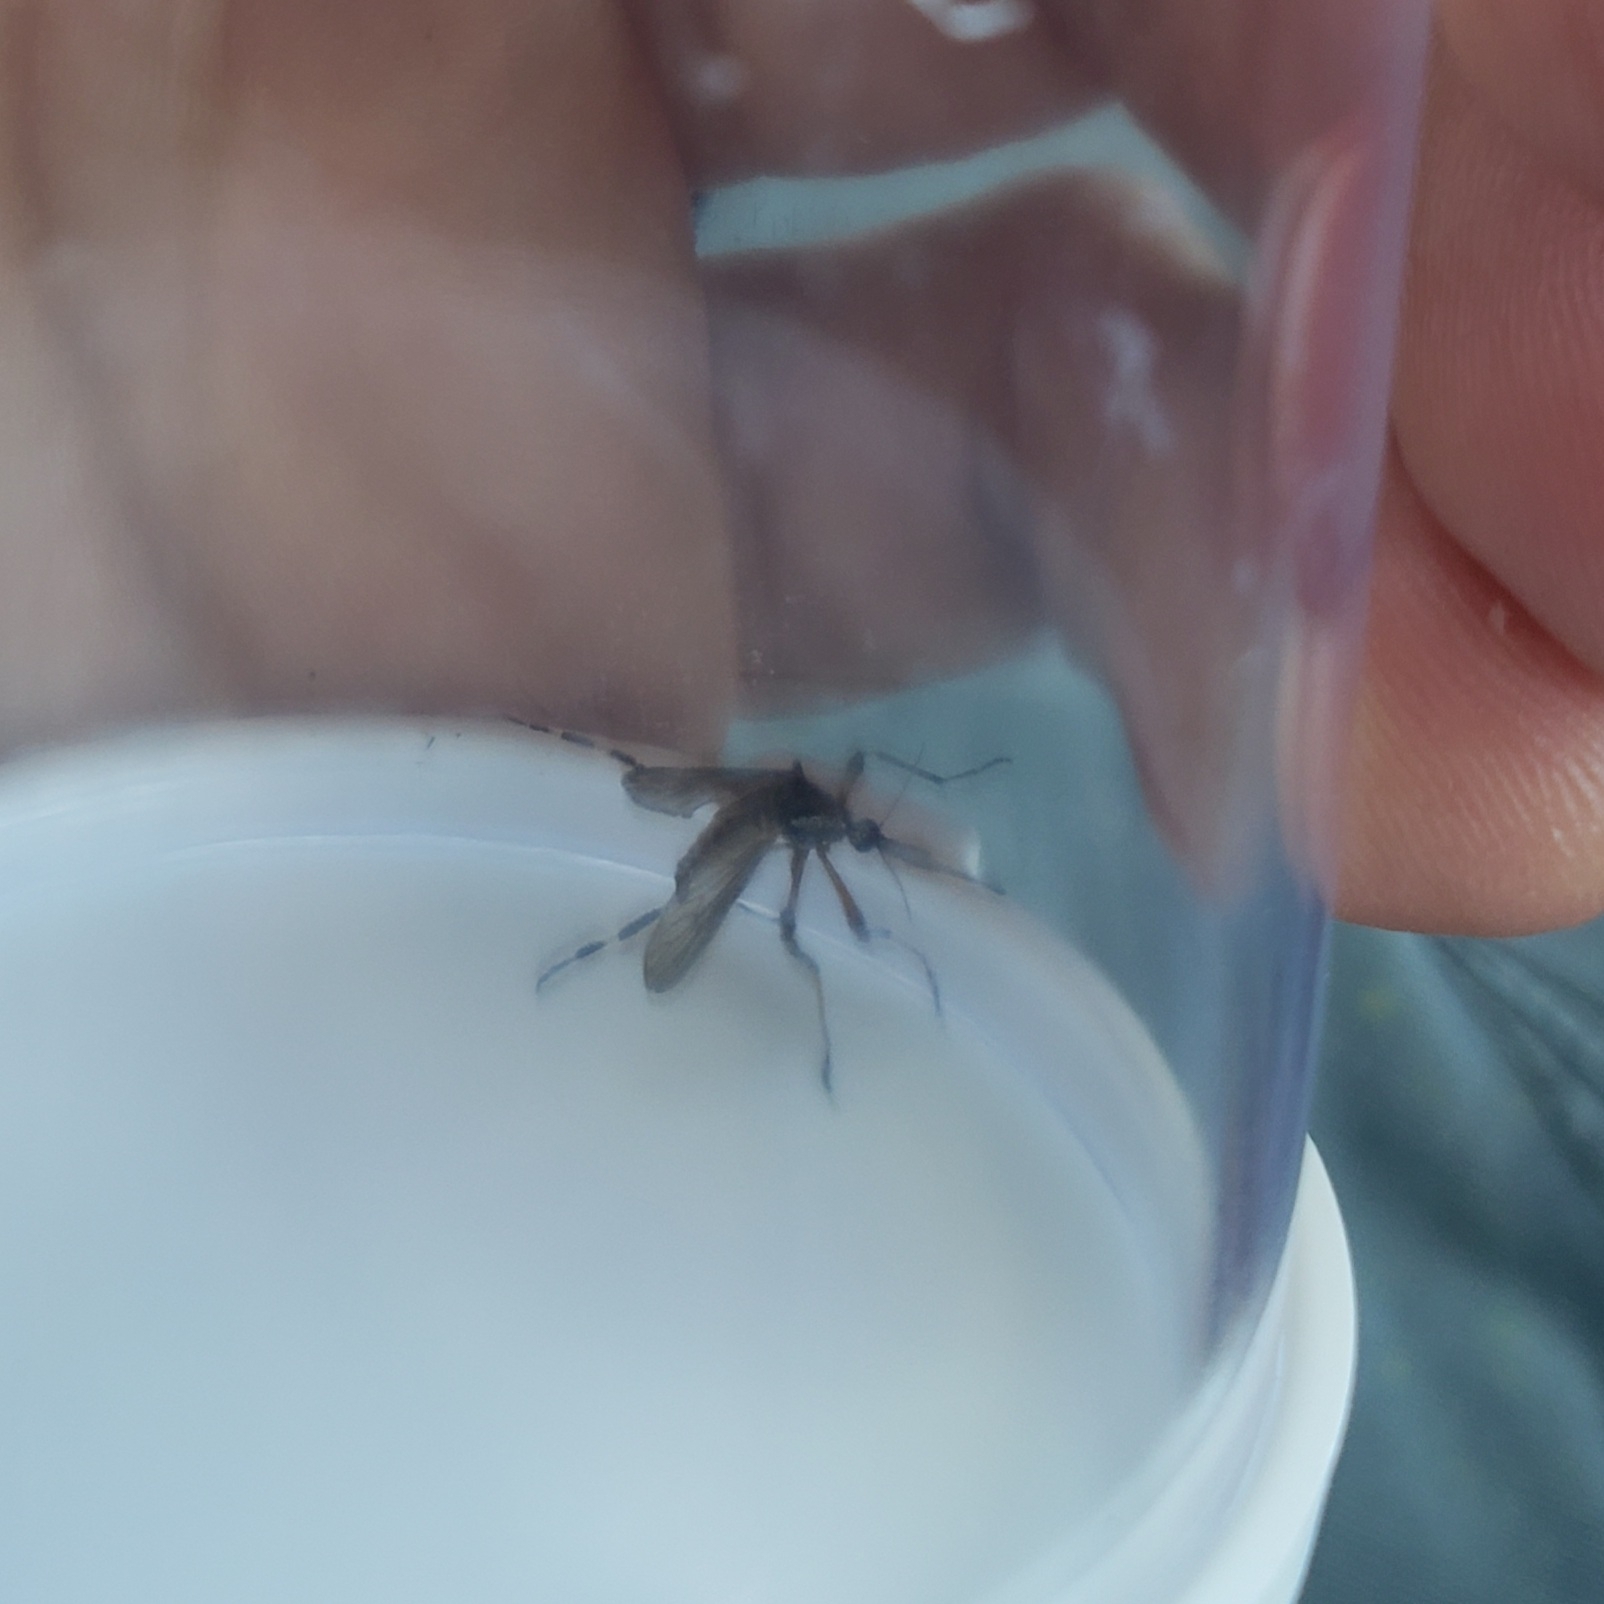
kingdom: Animalia
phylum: Arthropoda
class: Insecta
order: Diptera
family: Culicidae
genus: Psorophora
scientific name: Psorophora ciliata
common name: Gallinipper
